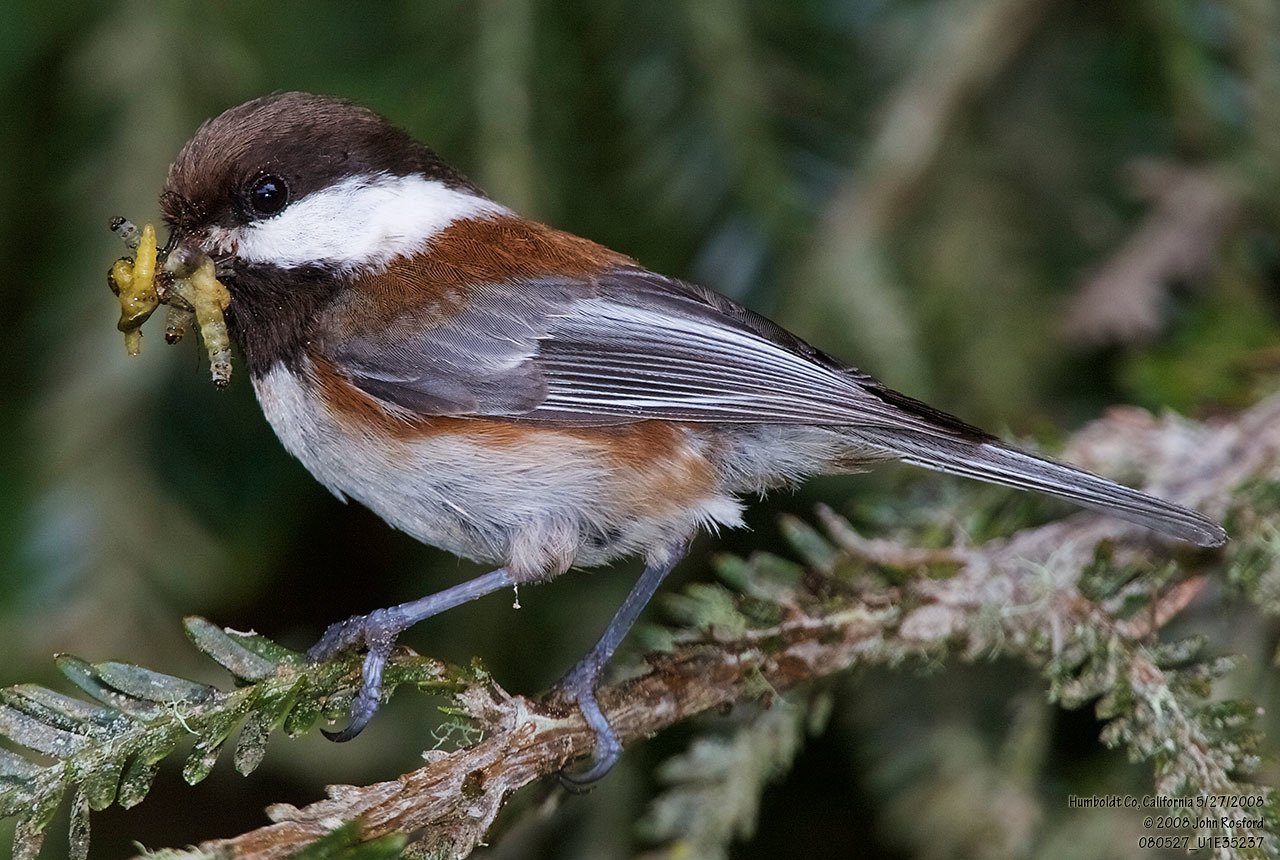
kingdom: Animalia
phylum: Chordata
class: Aves
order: Passeriformes
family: Paridae
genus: Poecile
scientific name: Poecile rufescens
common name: Chestnut-backed chickadee
